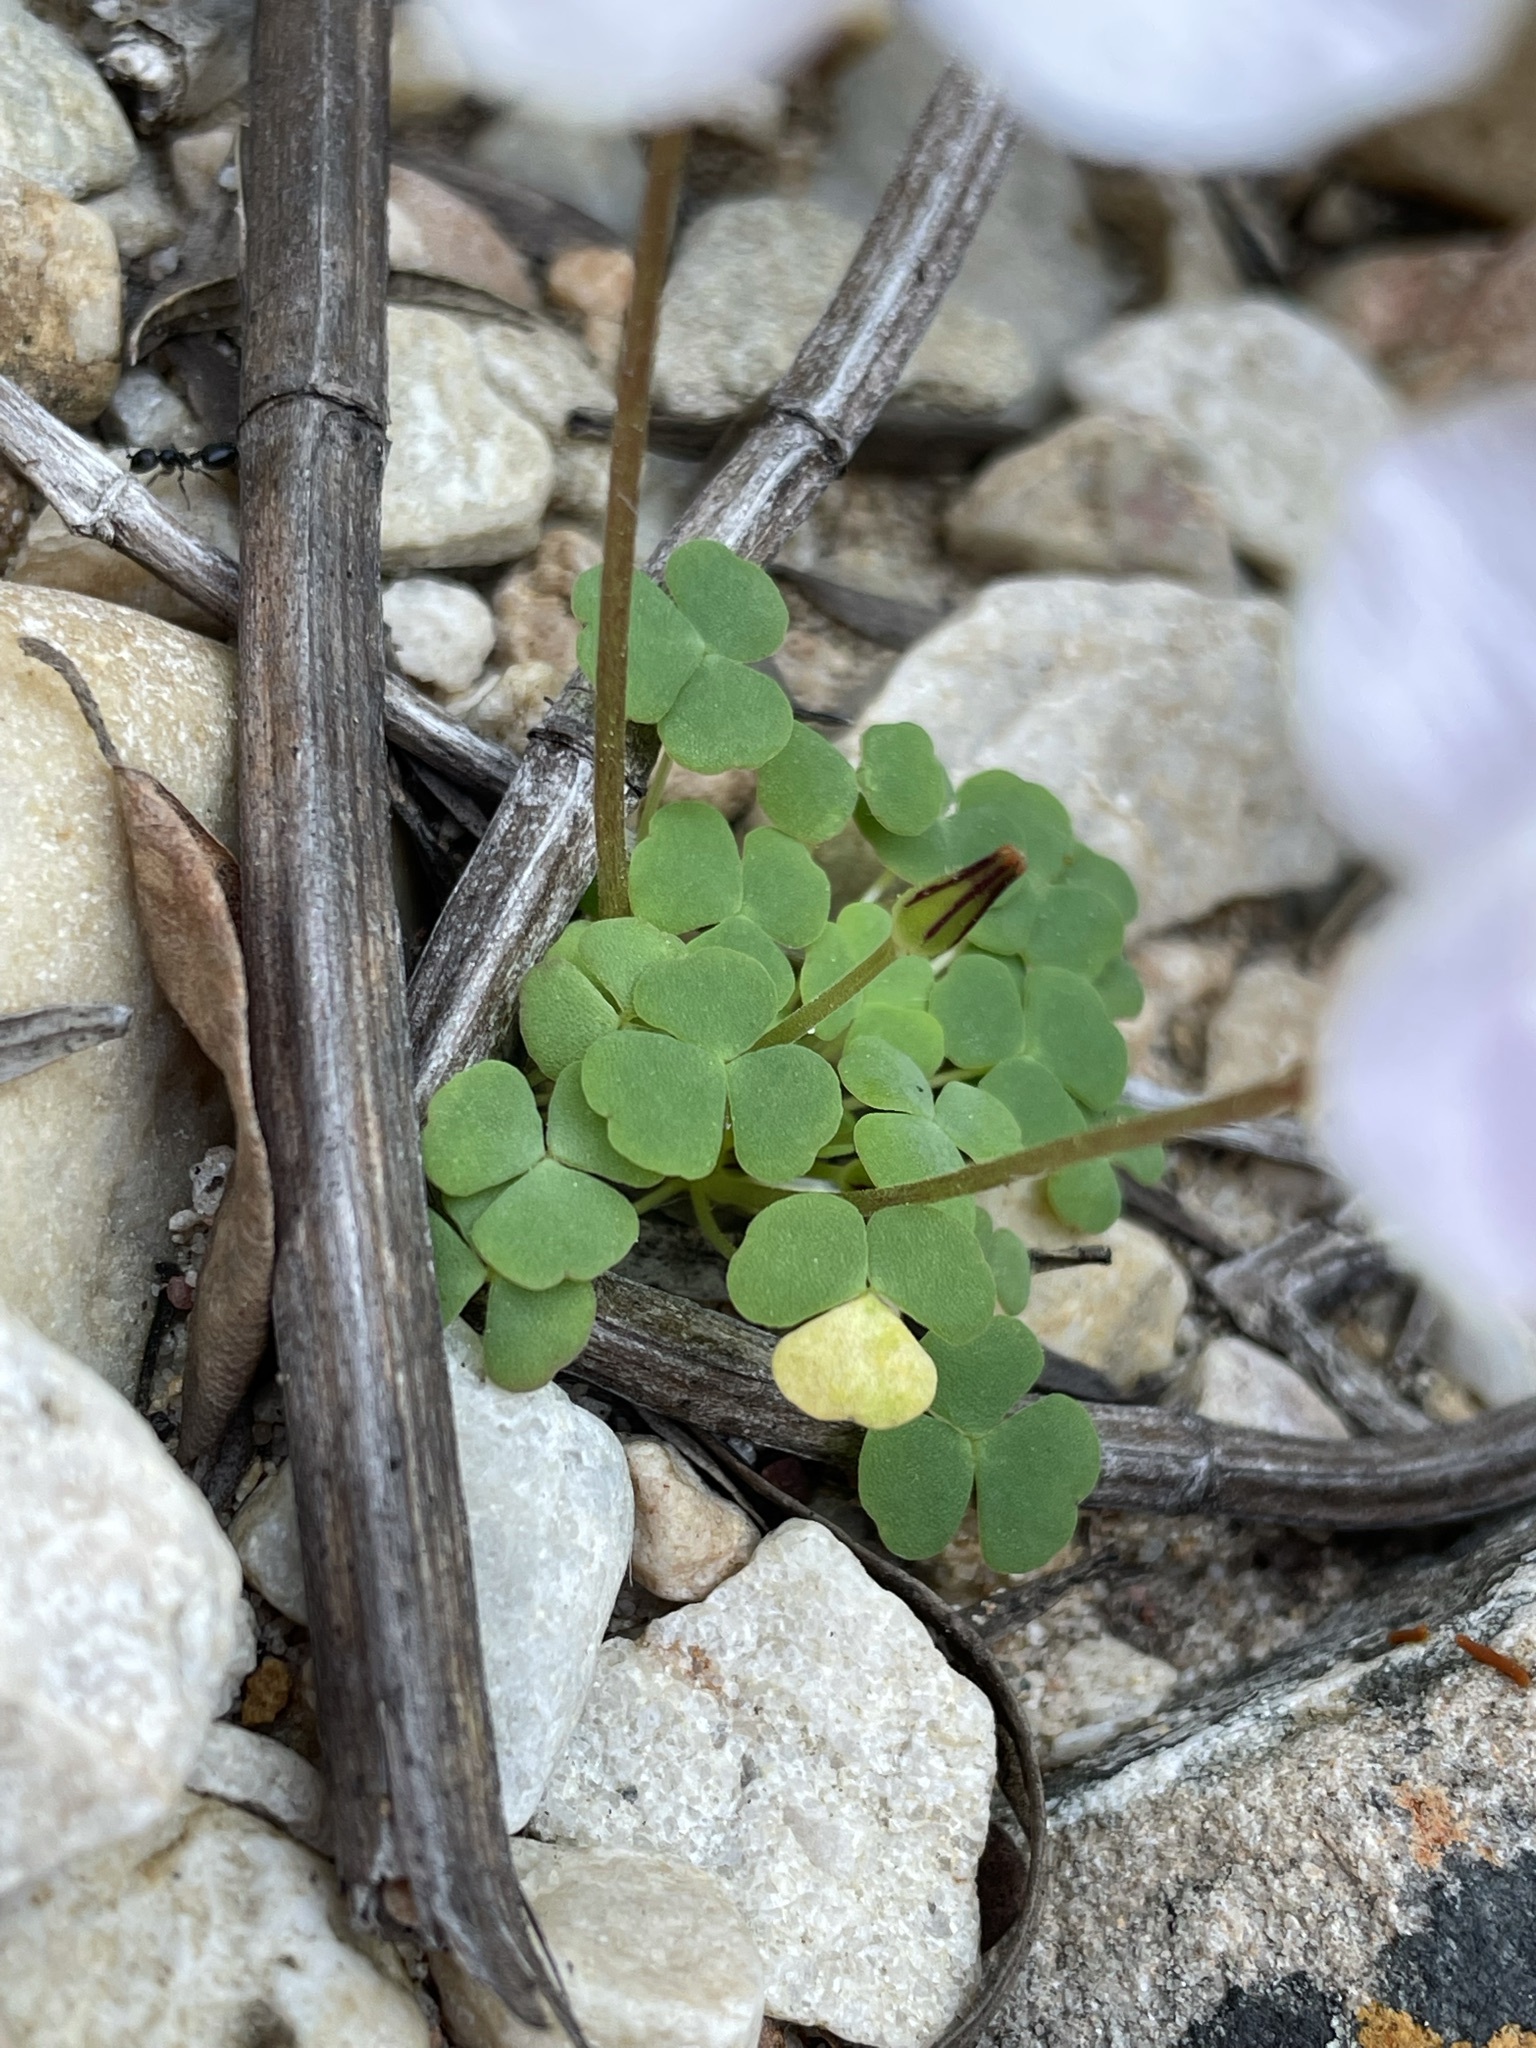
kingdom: Plantae
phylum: Tracheophyta
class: Magnoliopsida
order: Oxalidales
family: Oxalidaceae
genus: Oxalis
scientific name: Oxalis fergusoniae
